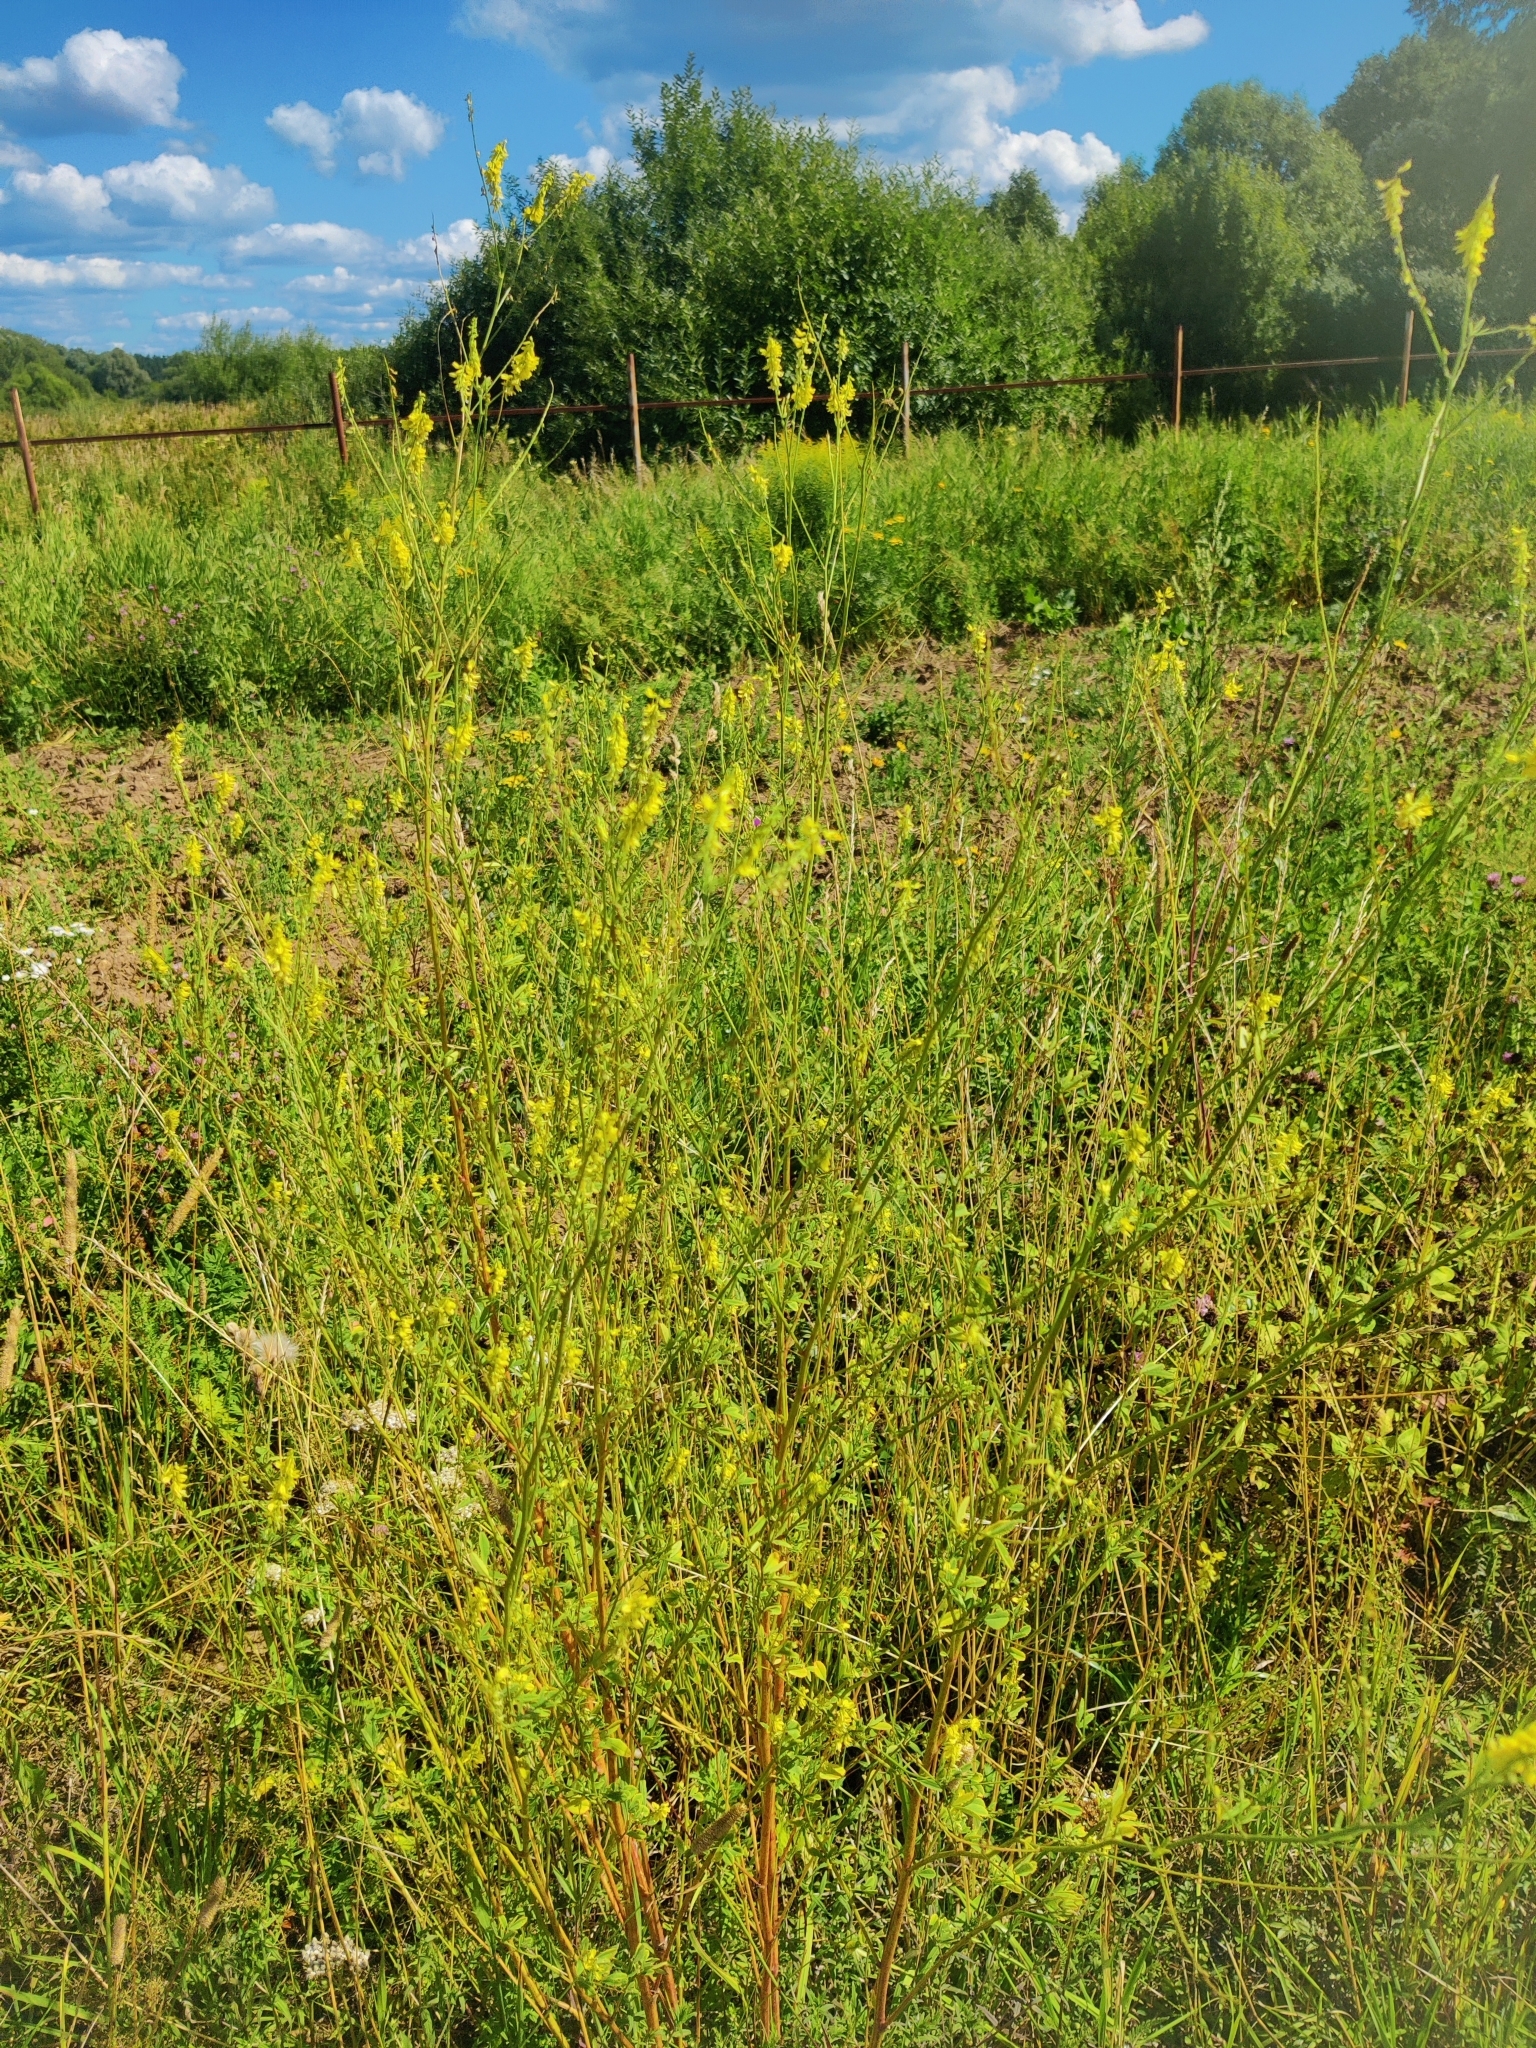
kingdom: Plantae
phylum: Tracheophyta
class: Magnoliopsida
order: Fabales
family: Fabaceae
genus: Melilotus
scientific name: Melilotus officinalis
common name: Sweetclover
